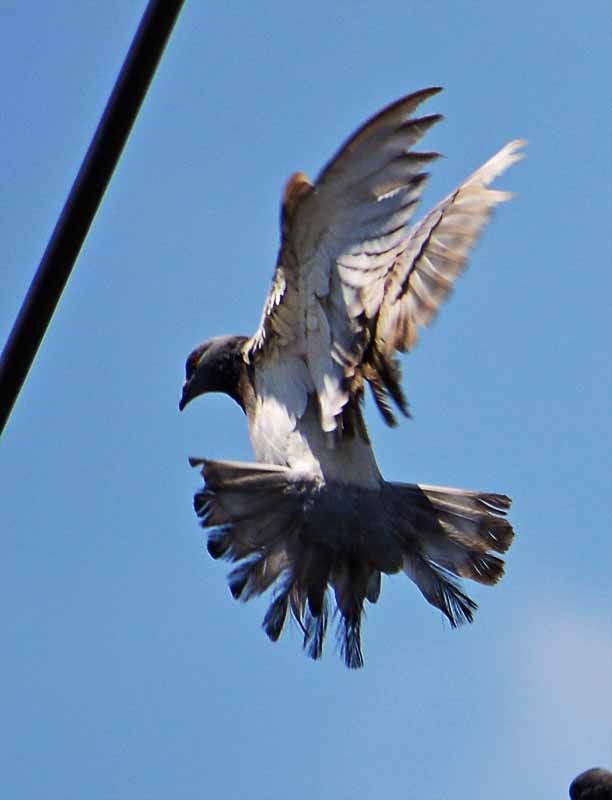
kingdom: Animalia
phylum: Chordata
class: Aves
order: Columbiformes
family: Columbidae
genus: Columba
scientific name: Columba livia
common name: Rock pigeon
